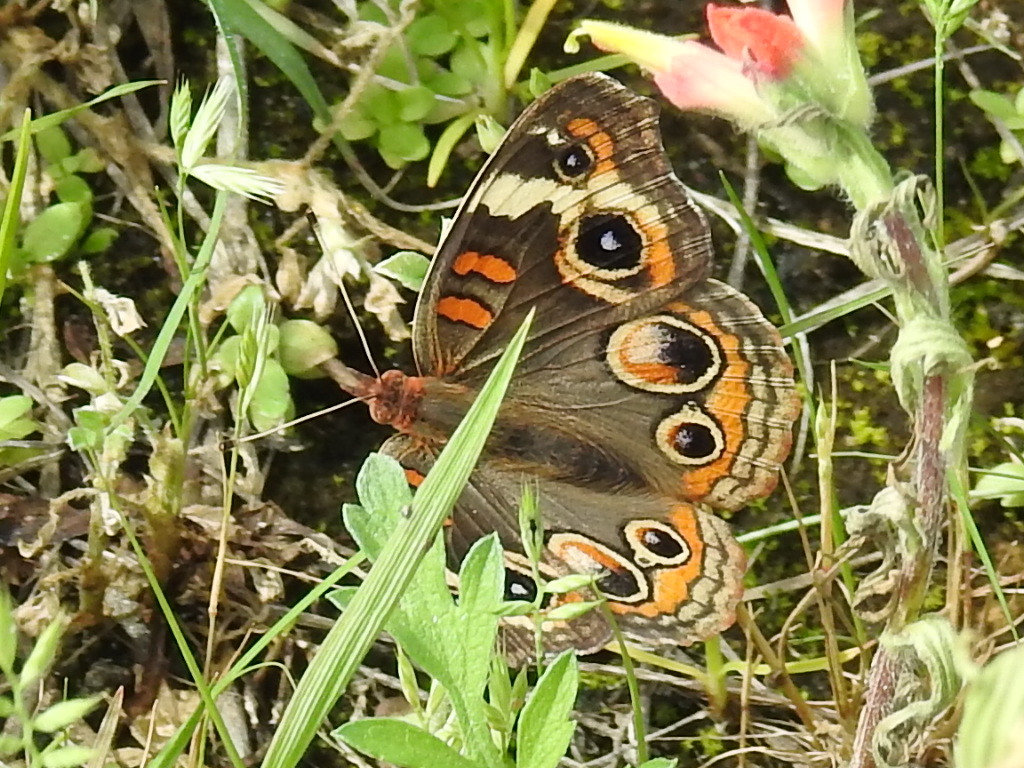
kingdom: Animalia
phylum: Arthropoda
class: Insecta
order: Lepidoptera
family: Nymphalidae
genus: Junonia
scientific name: Junonia coenia
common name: Common buckeye
